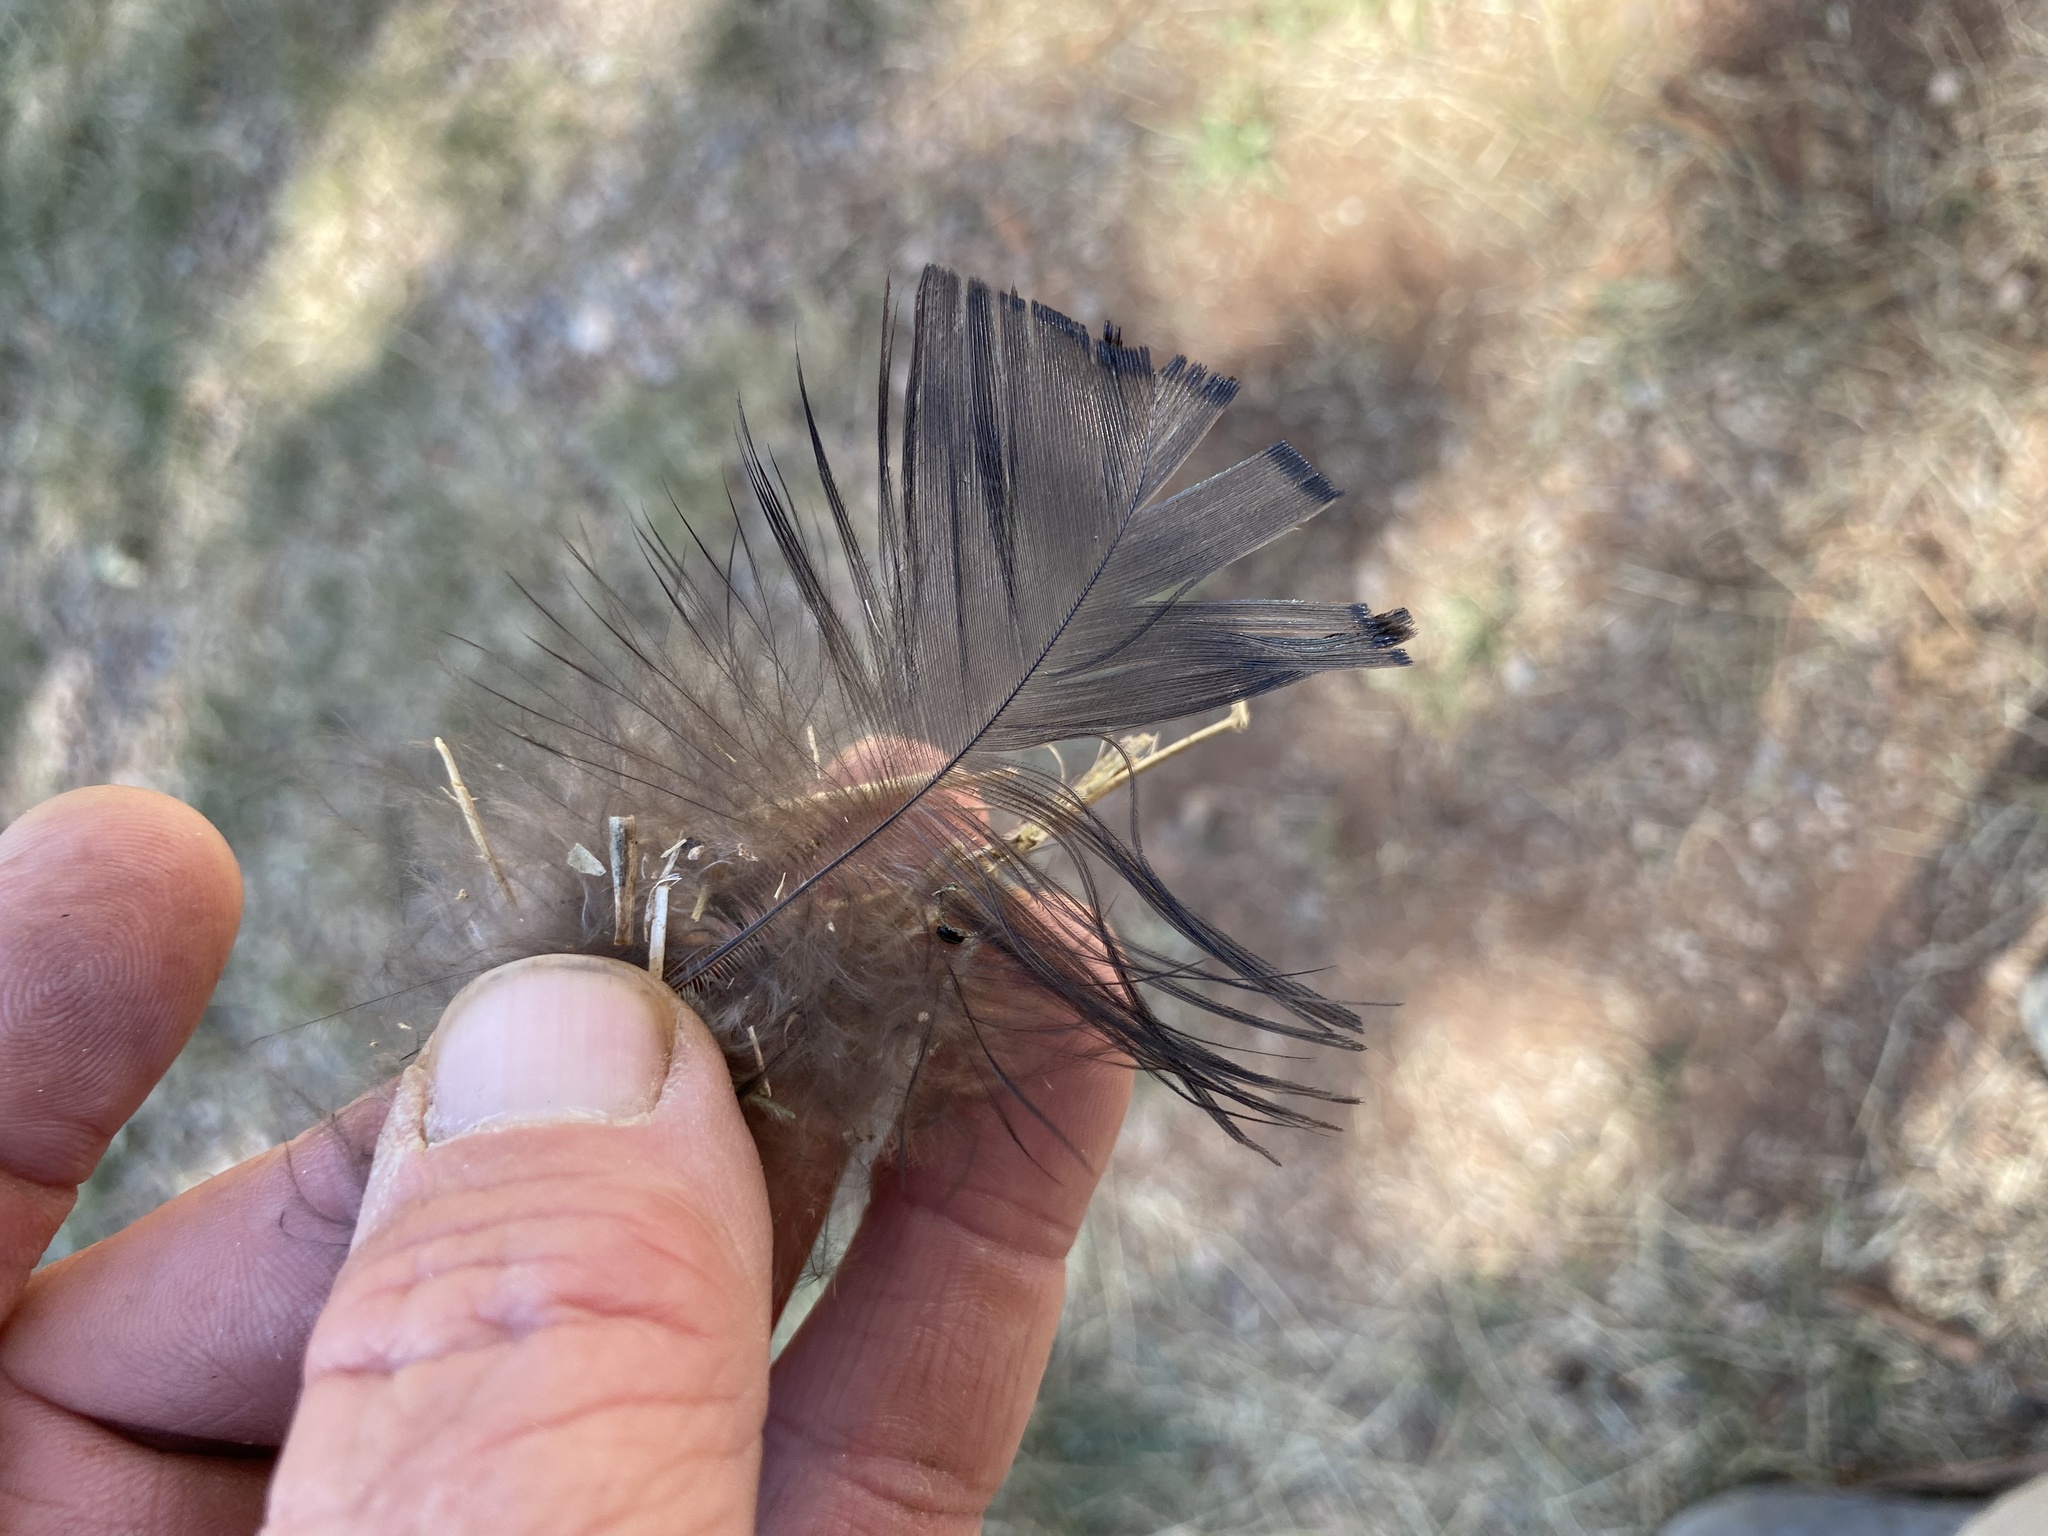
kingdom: Animalia
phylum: Chordata
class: Aves
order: Galliformes
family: Phasianidae
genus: Meleagris
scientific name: Meleagris gallopavo
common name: Wild turkey
